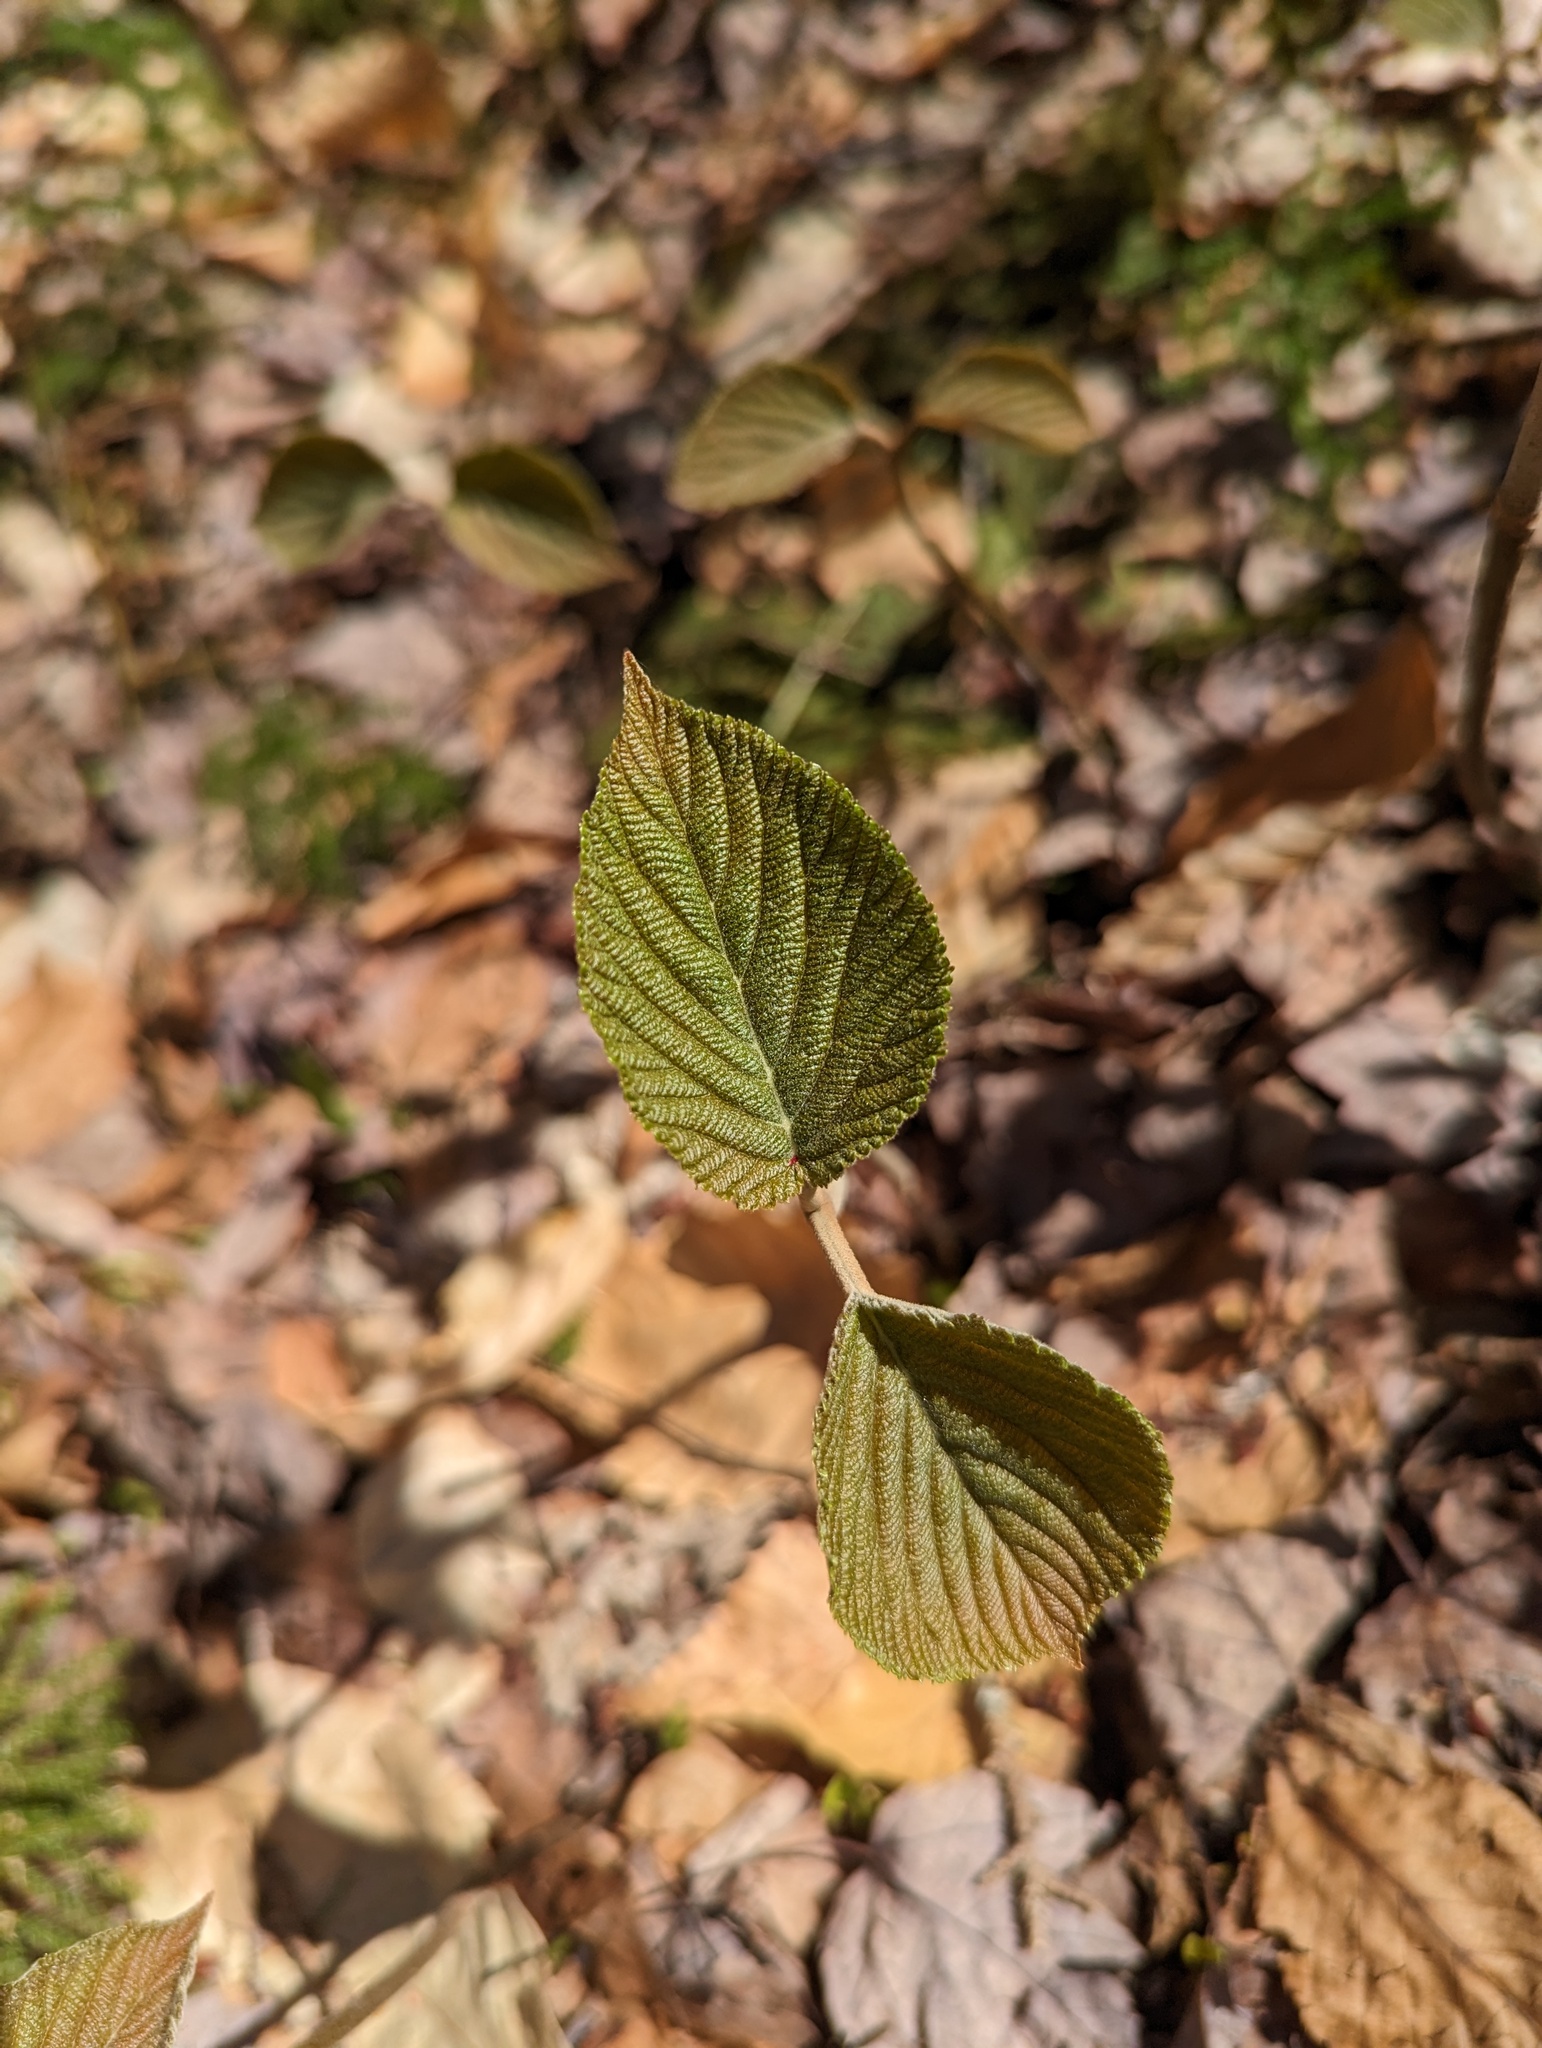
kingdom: Plantae
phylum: Tracheophyta
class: Magnoliopsida
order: Dipsacales
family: Viburnaceae
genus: Viburnum
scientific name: Viburnum lantanoides
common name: Hobblebush
